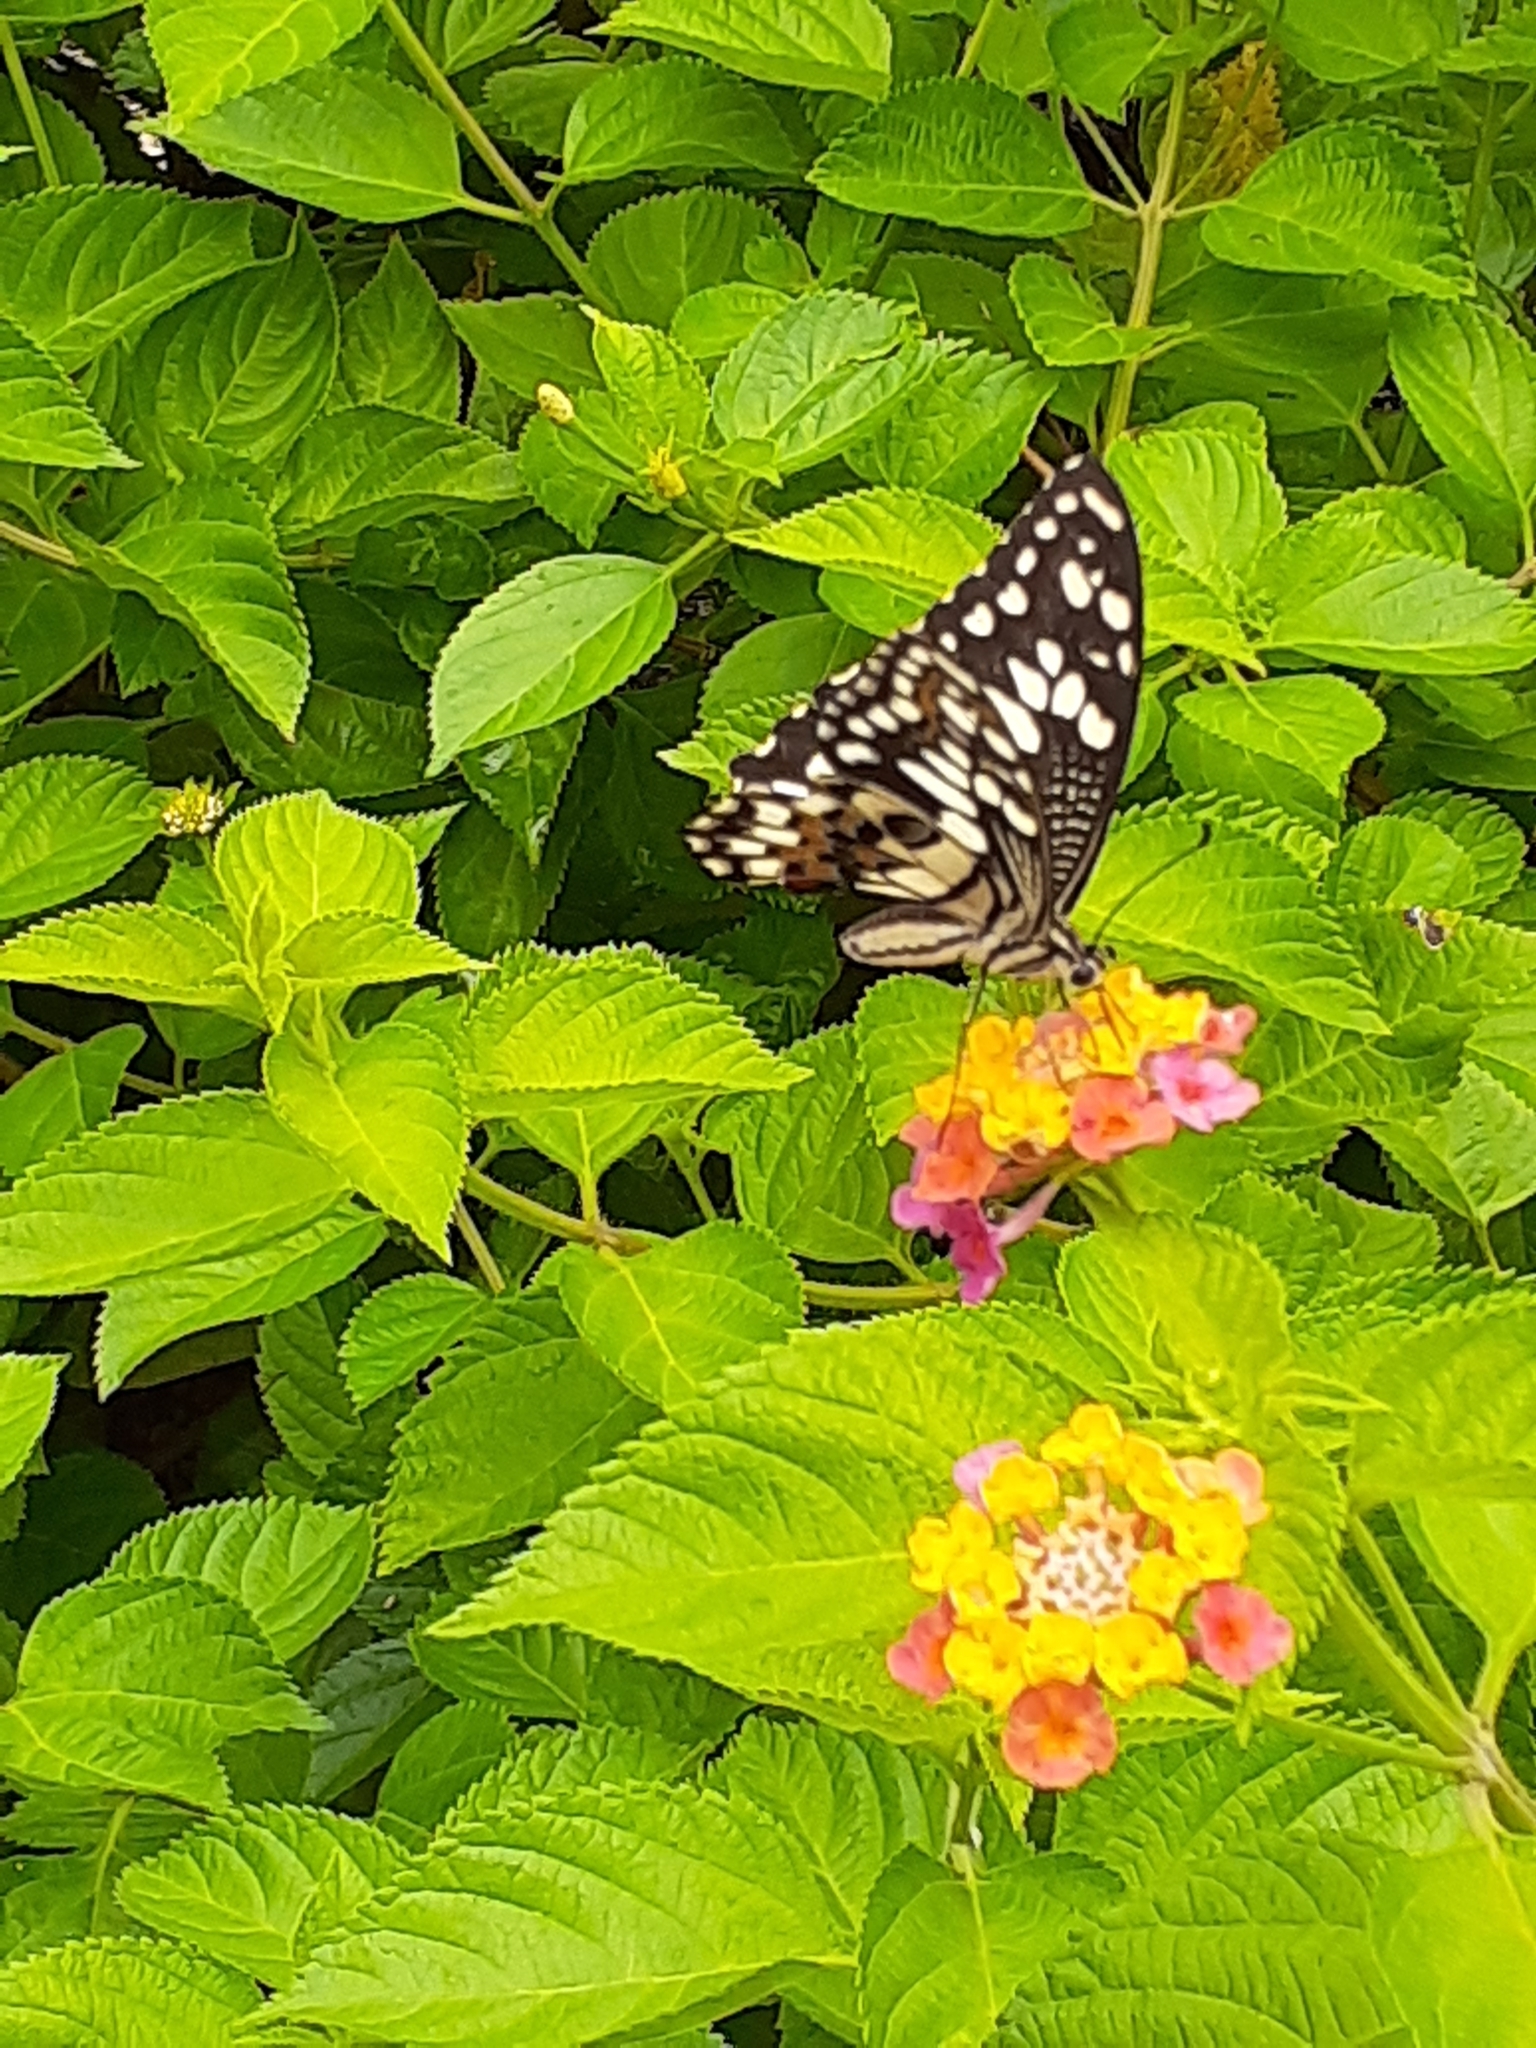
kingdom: Animalia
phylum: Arthropoda
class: Insecta
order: Lepidoptera
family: Papilionidae
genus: Papilio
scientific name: Papilio demoleus
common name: Lime butterfly
